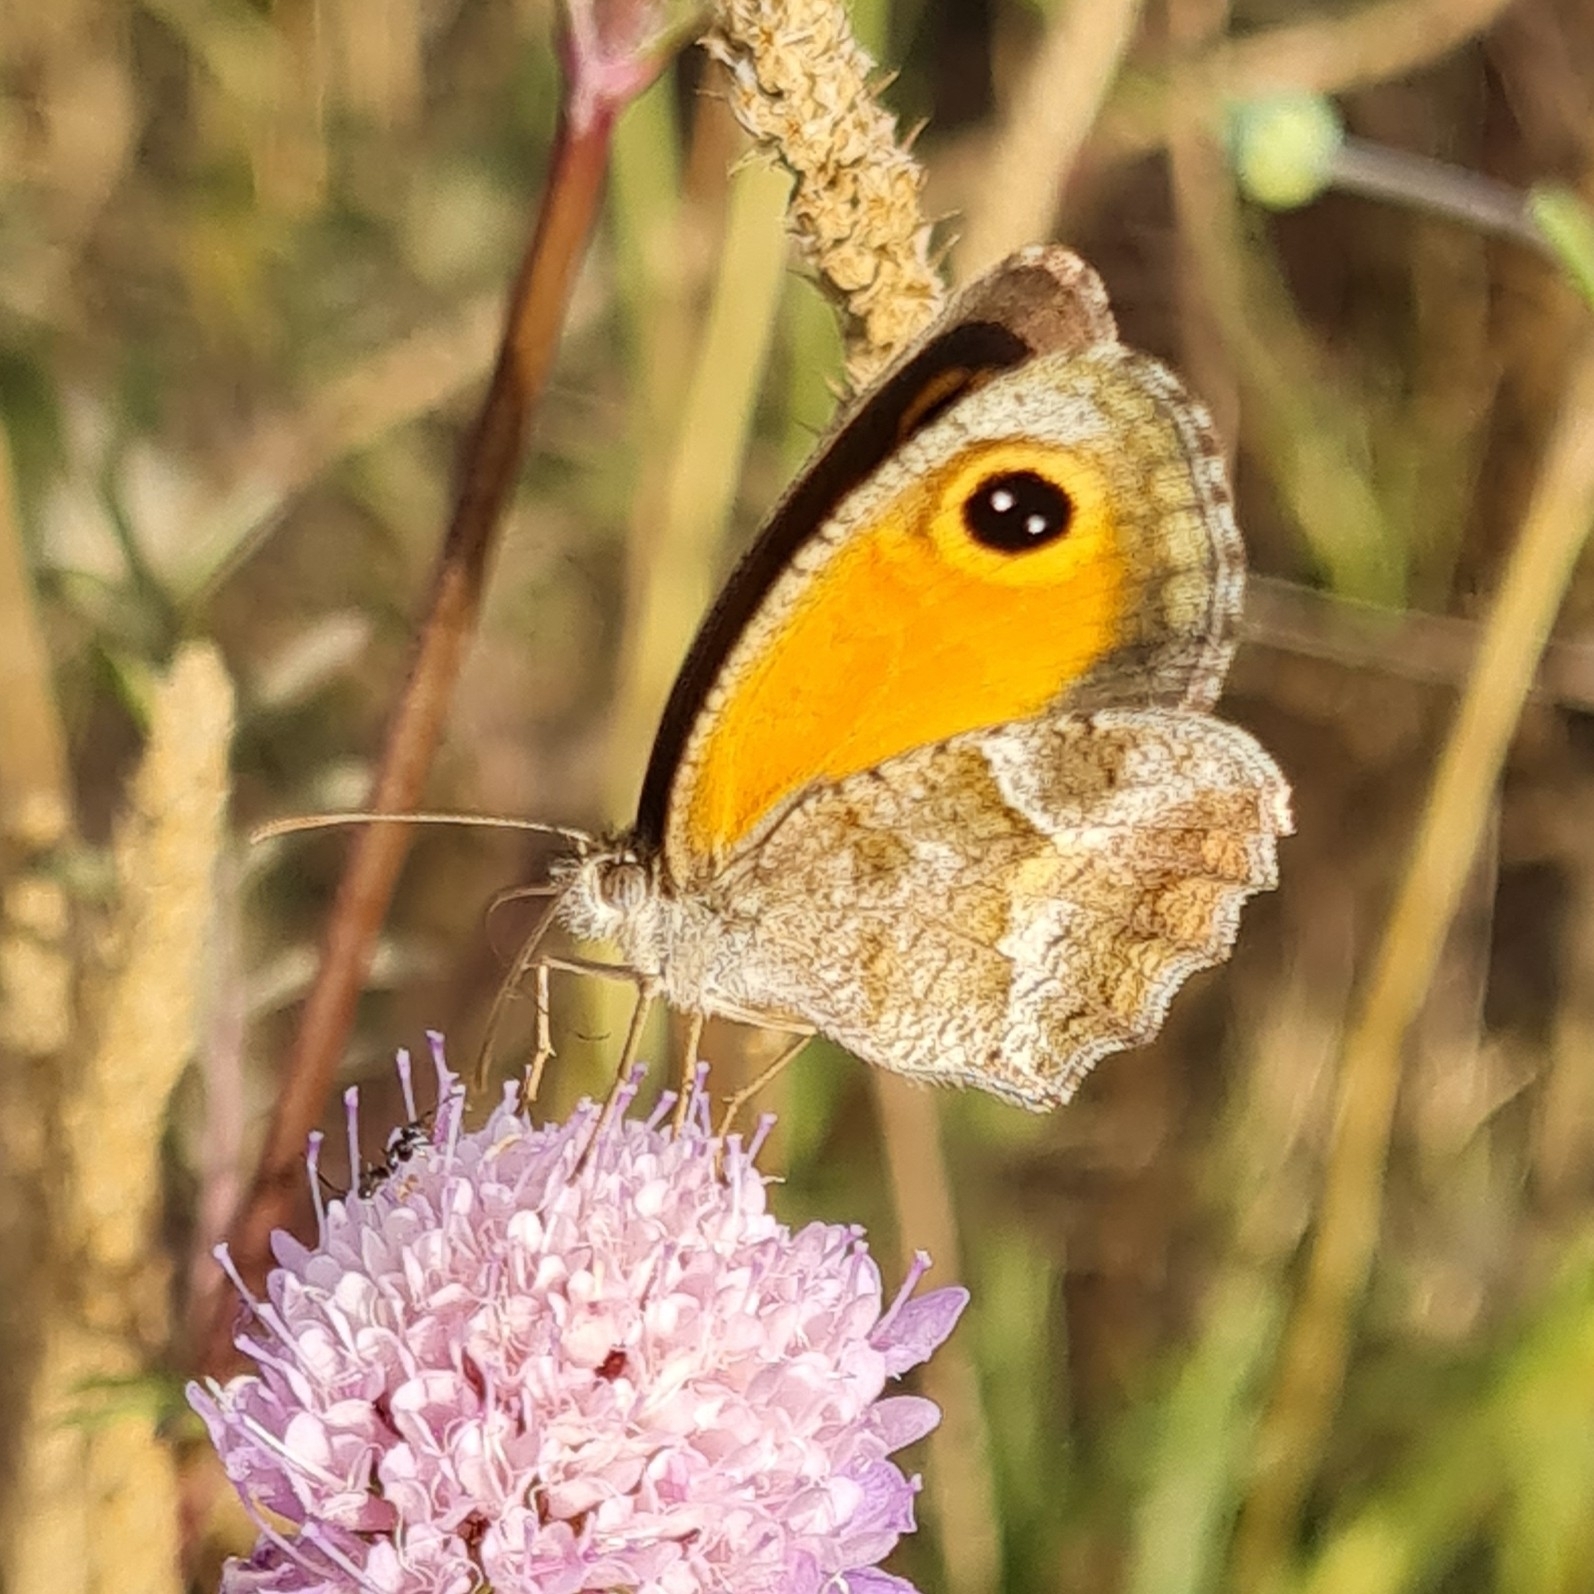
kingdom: Animalia
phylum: Arthropoda
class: Insecta
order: Lepidoptera
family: Nymphalidae
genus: Pyronia
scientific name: Pyronia cecilia
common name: Southern gatekeeper
